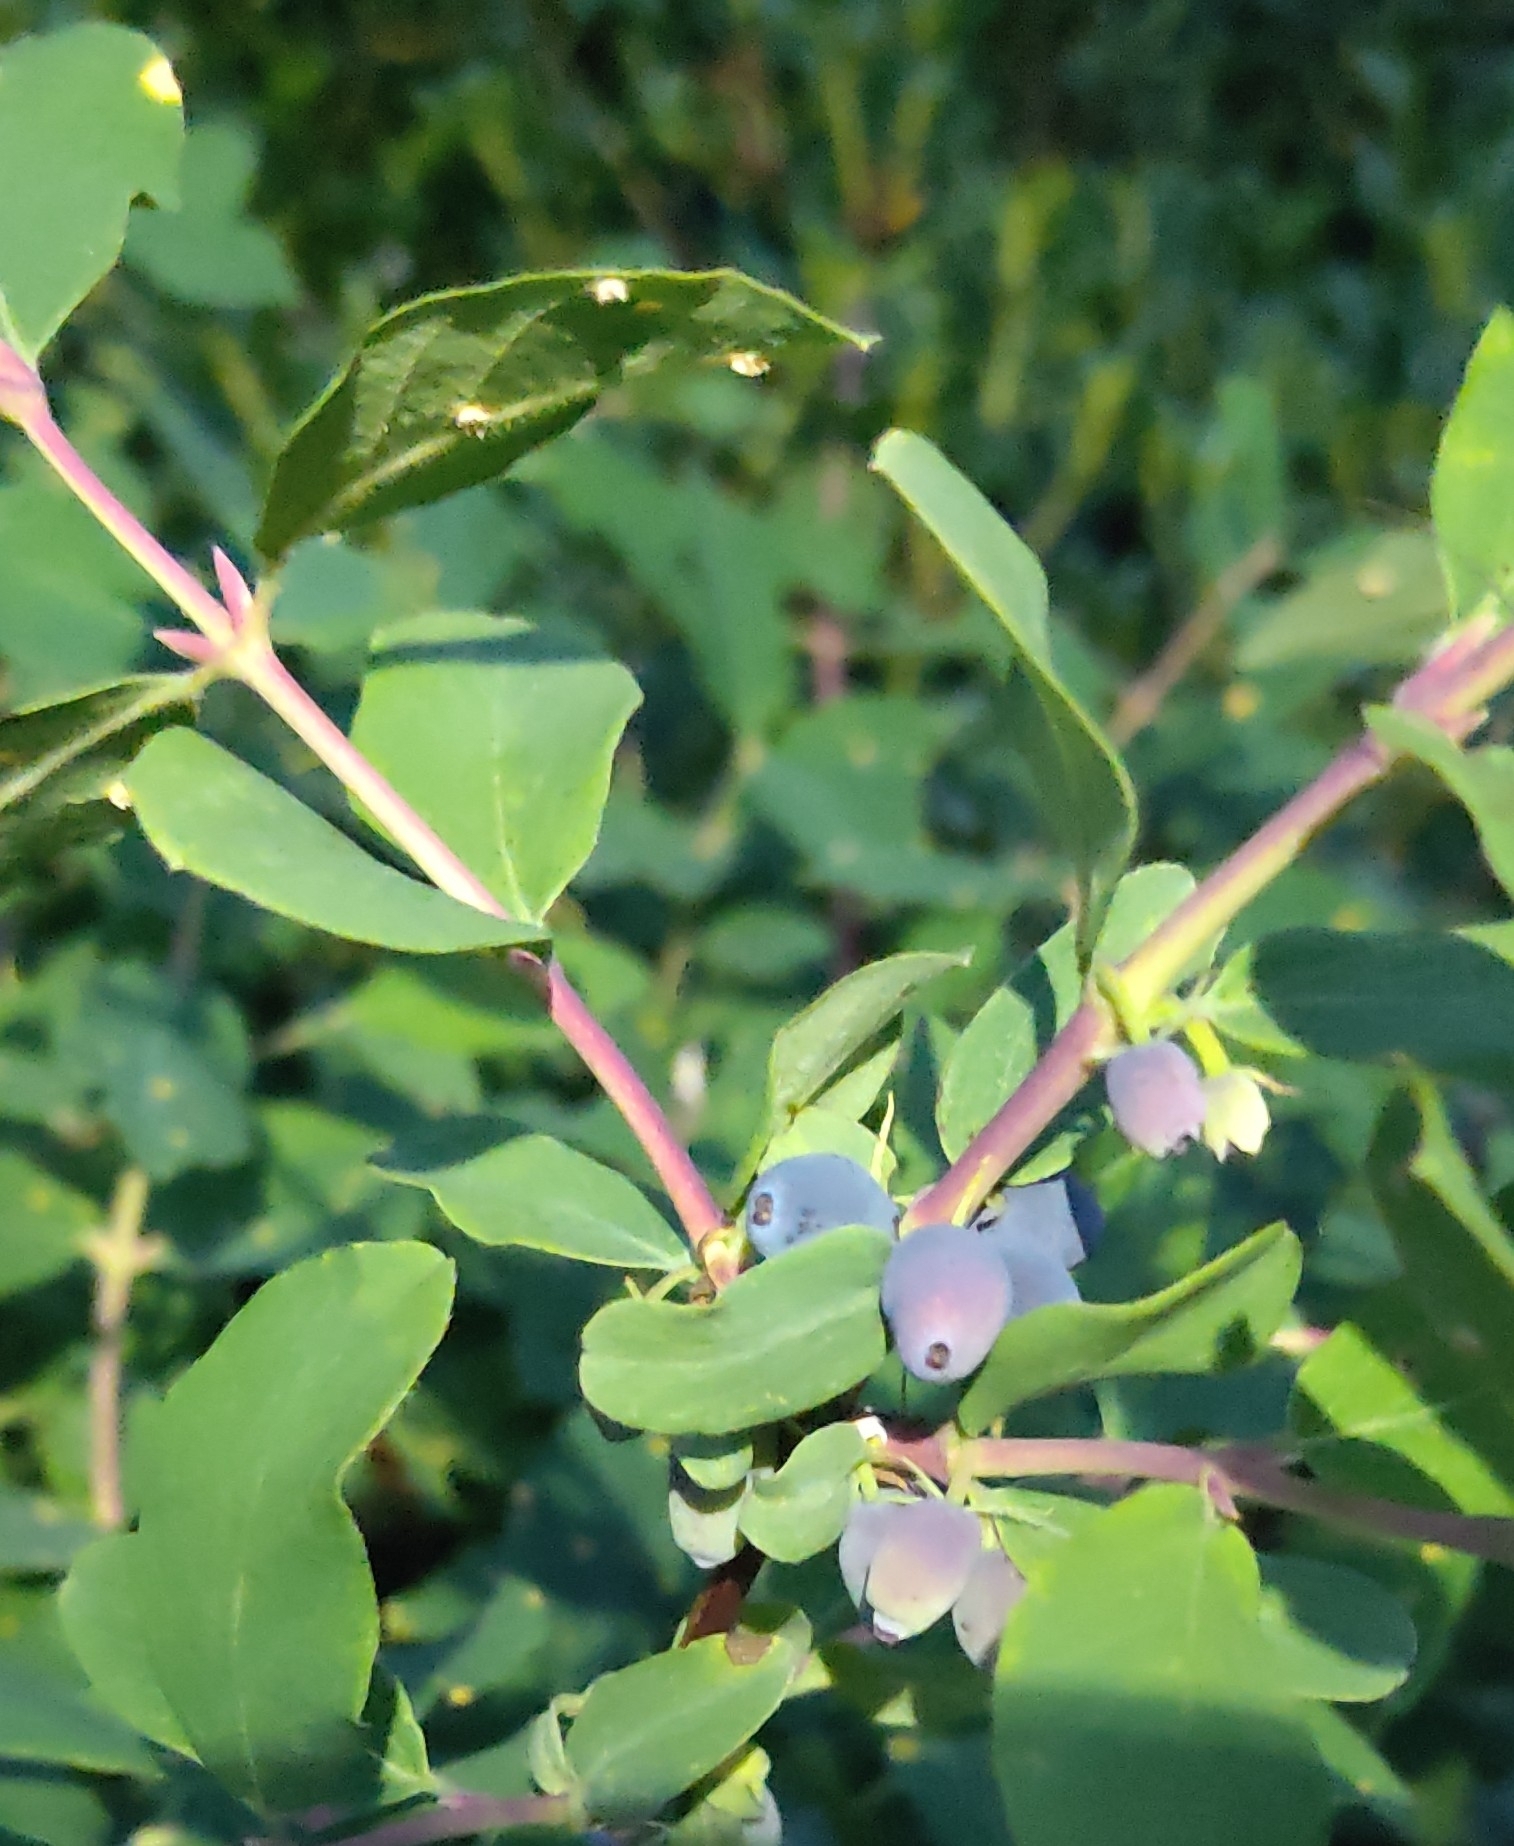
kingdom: Plantae
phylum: Tracheophyta
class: Magnoliopsida
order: Dipsacales
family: Caprifoliaceae
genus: Lonicera
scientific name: Lonicera caerulea
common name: Blue honeysuckle
